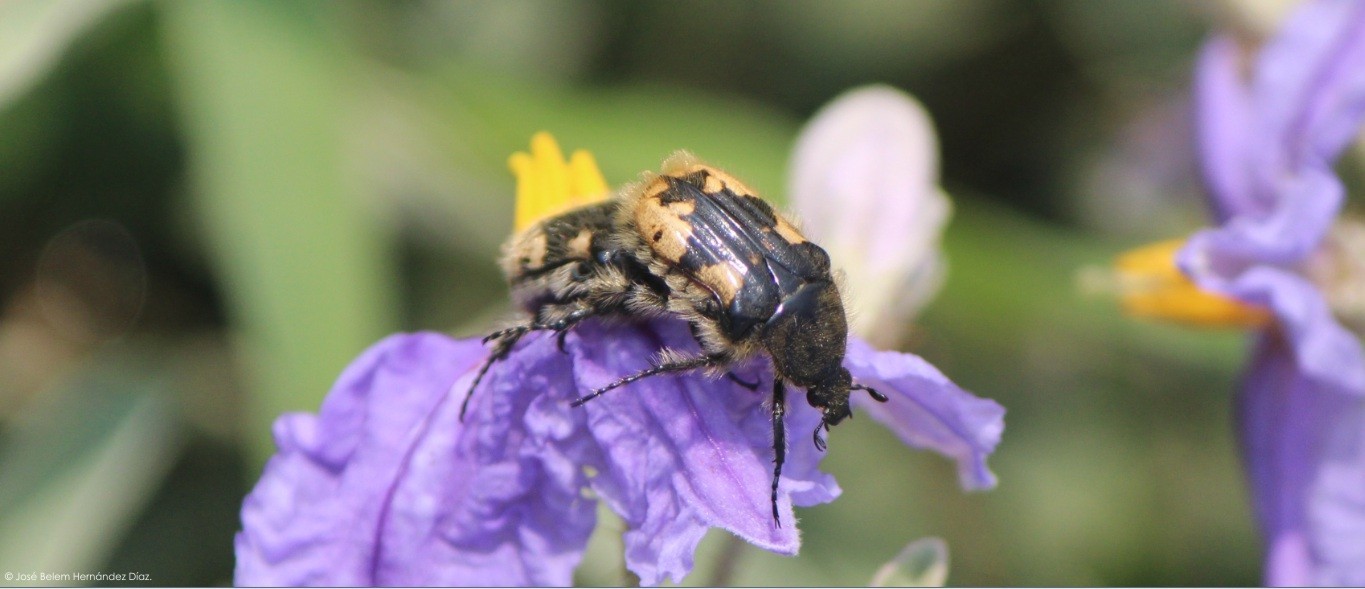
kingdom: Animalia
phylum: Arthropoda
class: Insecta
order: Coleoptera
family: Scarabaeidae
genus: Euphoria
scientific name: Euphoria basalis
